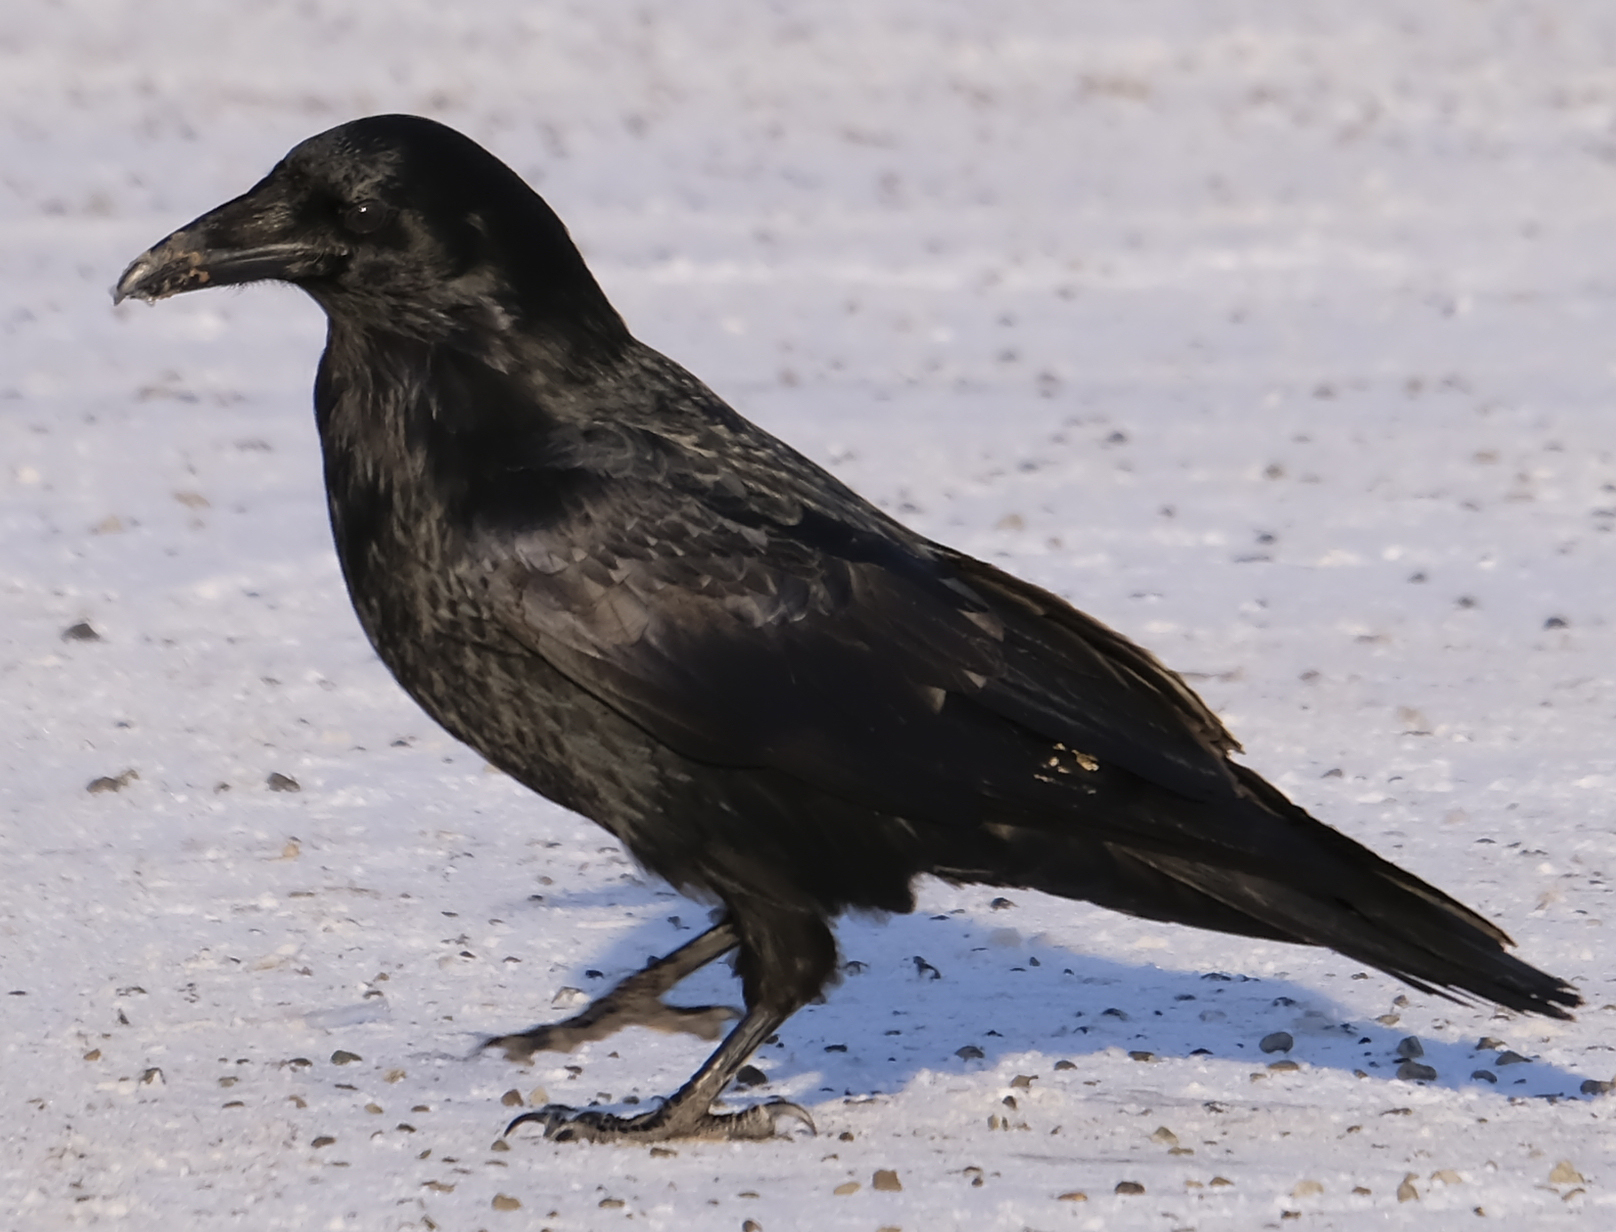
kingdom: Animalia
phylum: Chordata
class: Aves
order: Passeriformes
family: Corvidae
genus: Corvus
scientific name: Corvus corax
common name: Common raven
